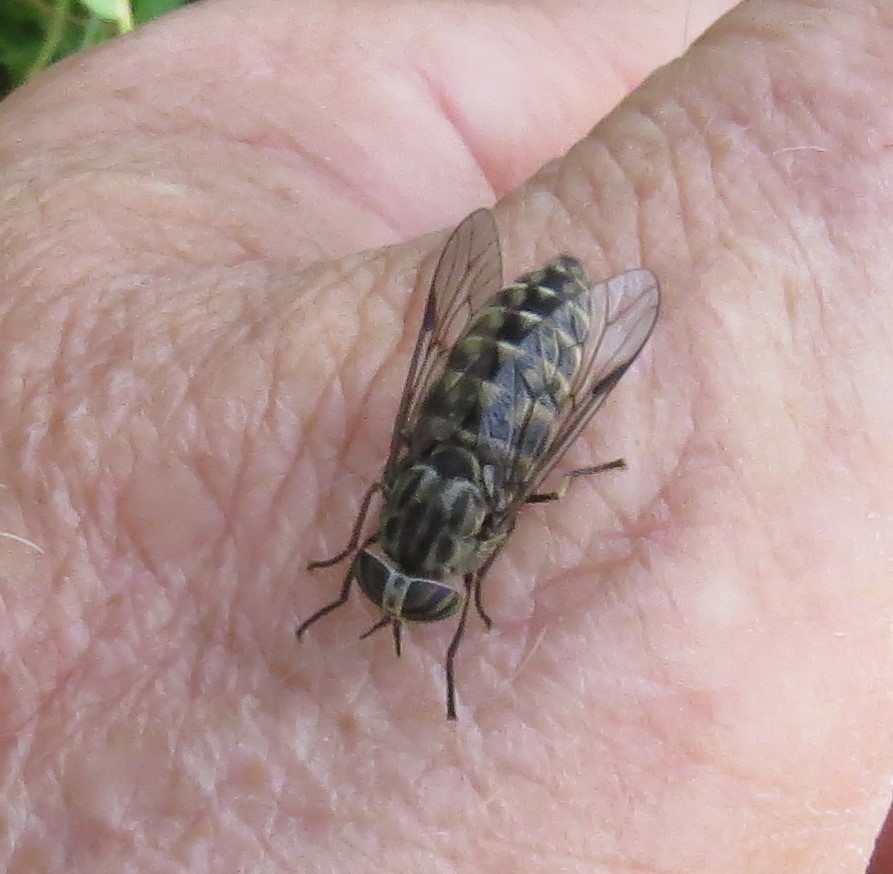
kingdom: Animalia
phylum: Arthropoda
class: Insecta
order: Diptera
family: Tabanidae
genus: Hybomitra
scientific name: Hybomitra pechumani
